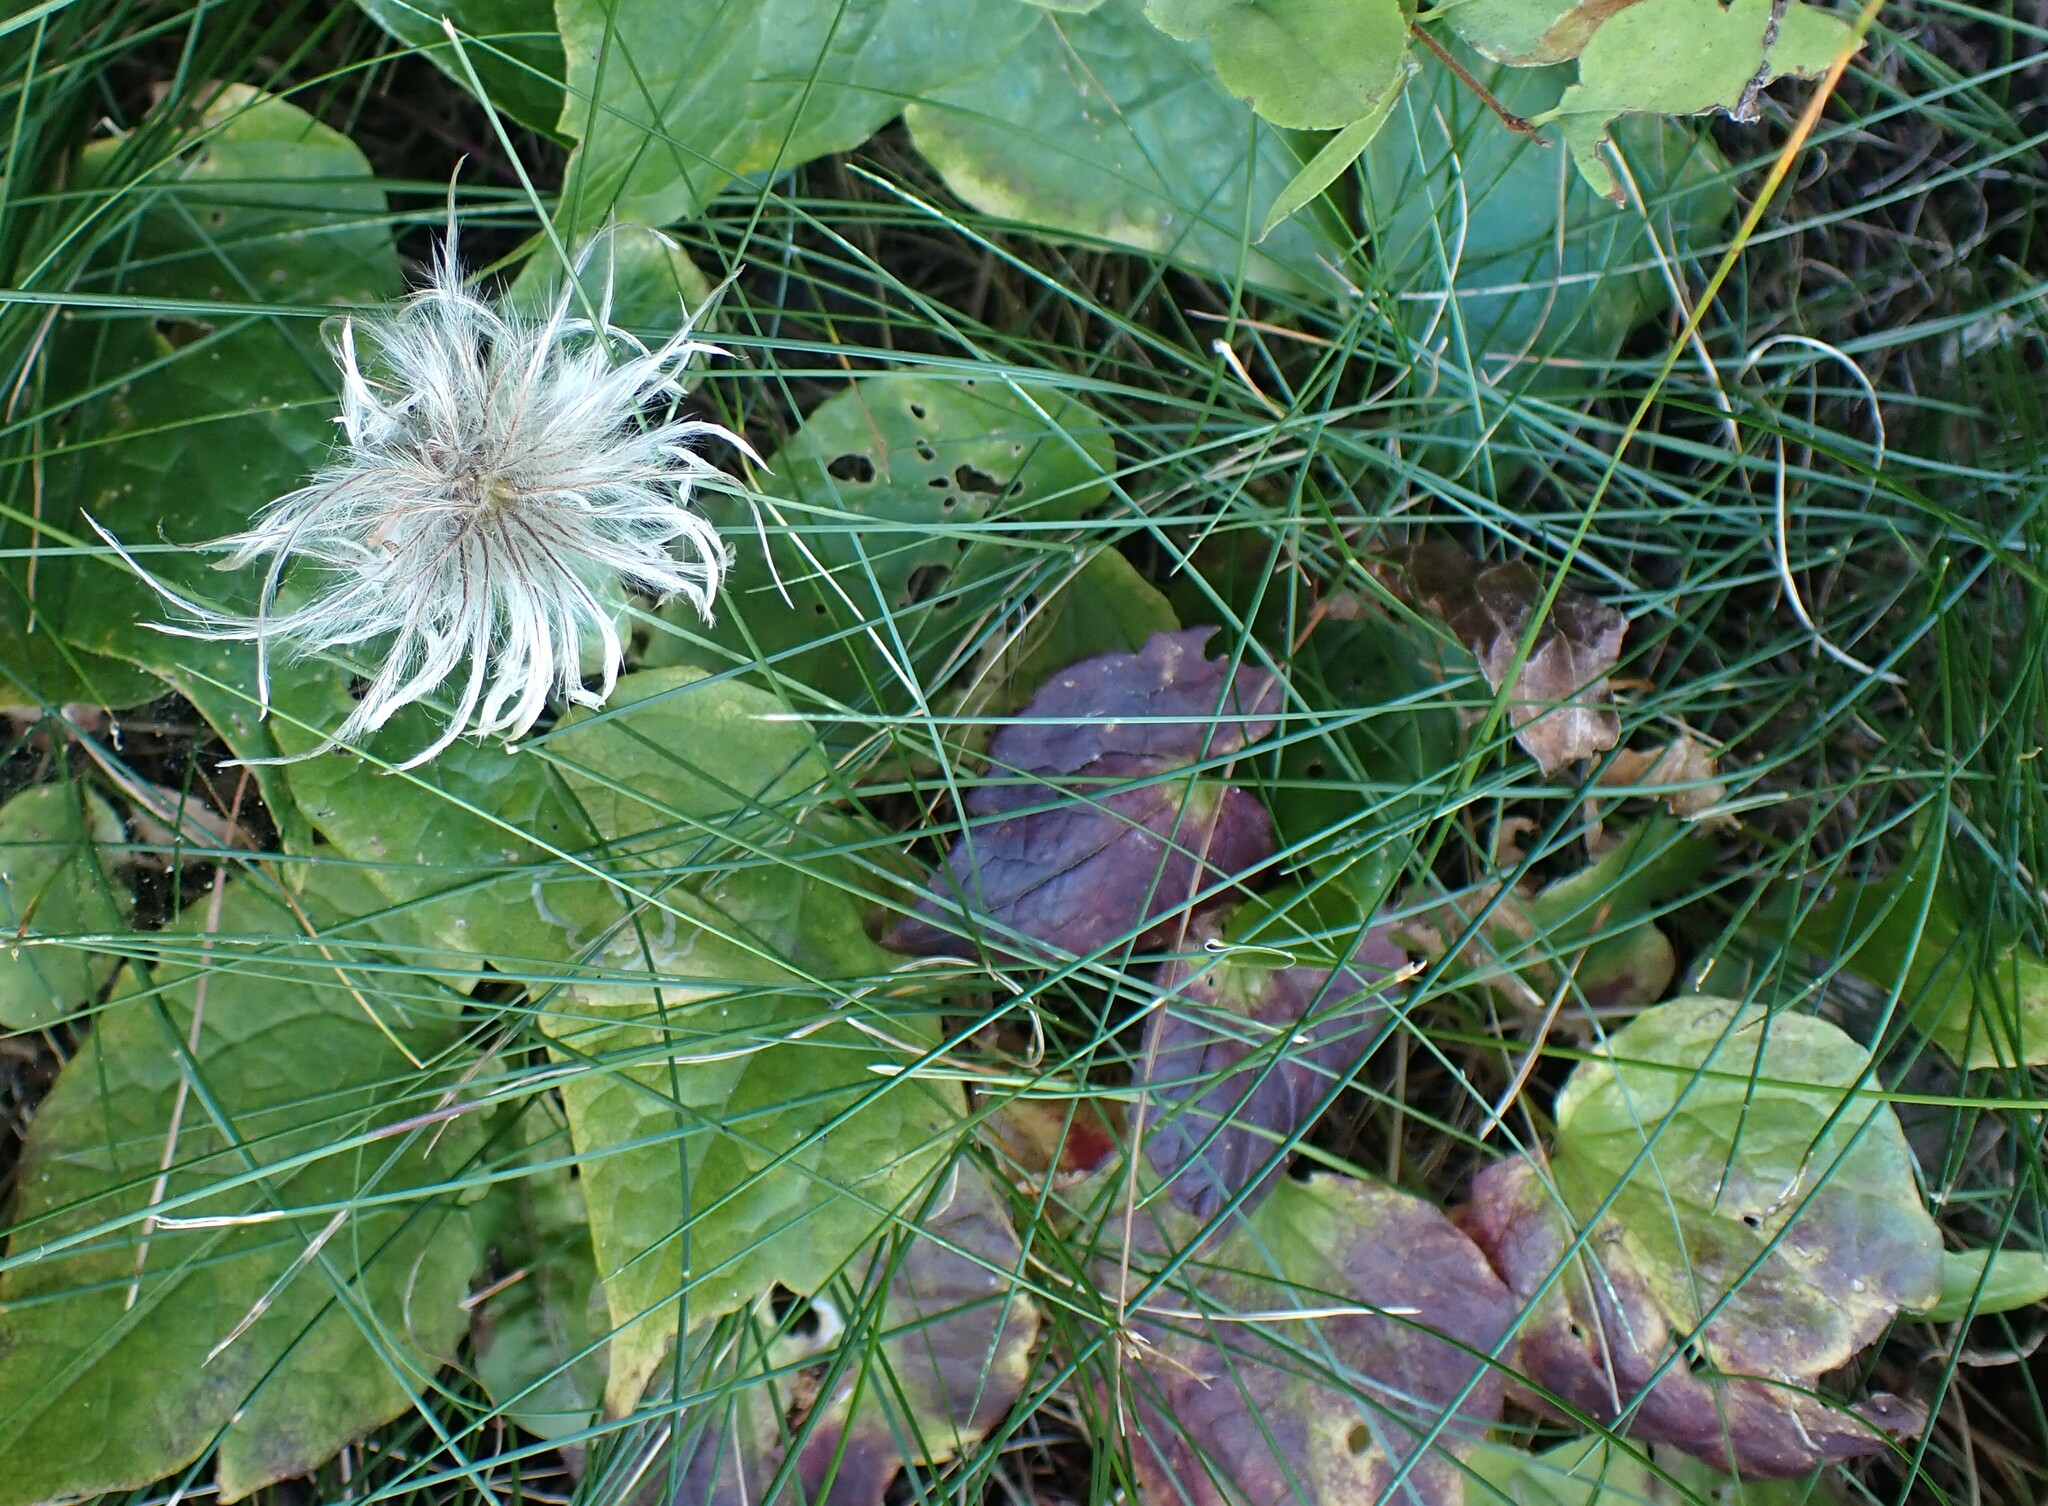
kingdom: Plantae
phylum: Tracheophyta
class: Magnoliopsida
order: Ranunculales
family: Ranunculaceae
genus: Clematis
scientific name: Clematis occidentalis
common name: Purple clematis
